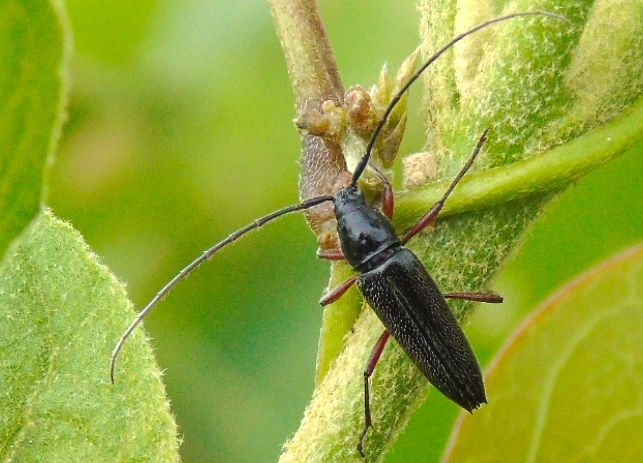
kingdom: Animalia
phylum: Arthropoda
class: Insecta
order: Coleoptera
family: Cerambycidae
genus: Stenosphenus
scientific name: Stenosphenus
